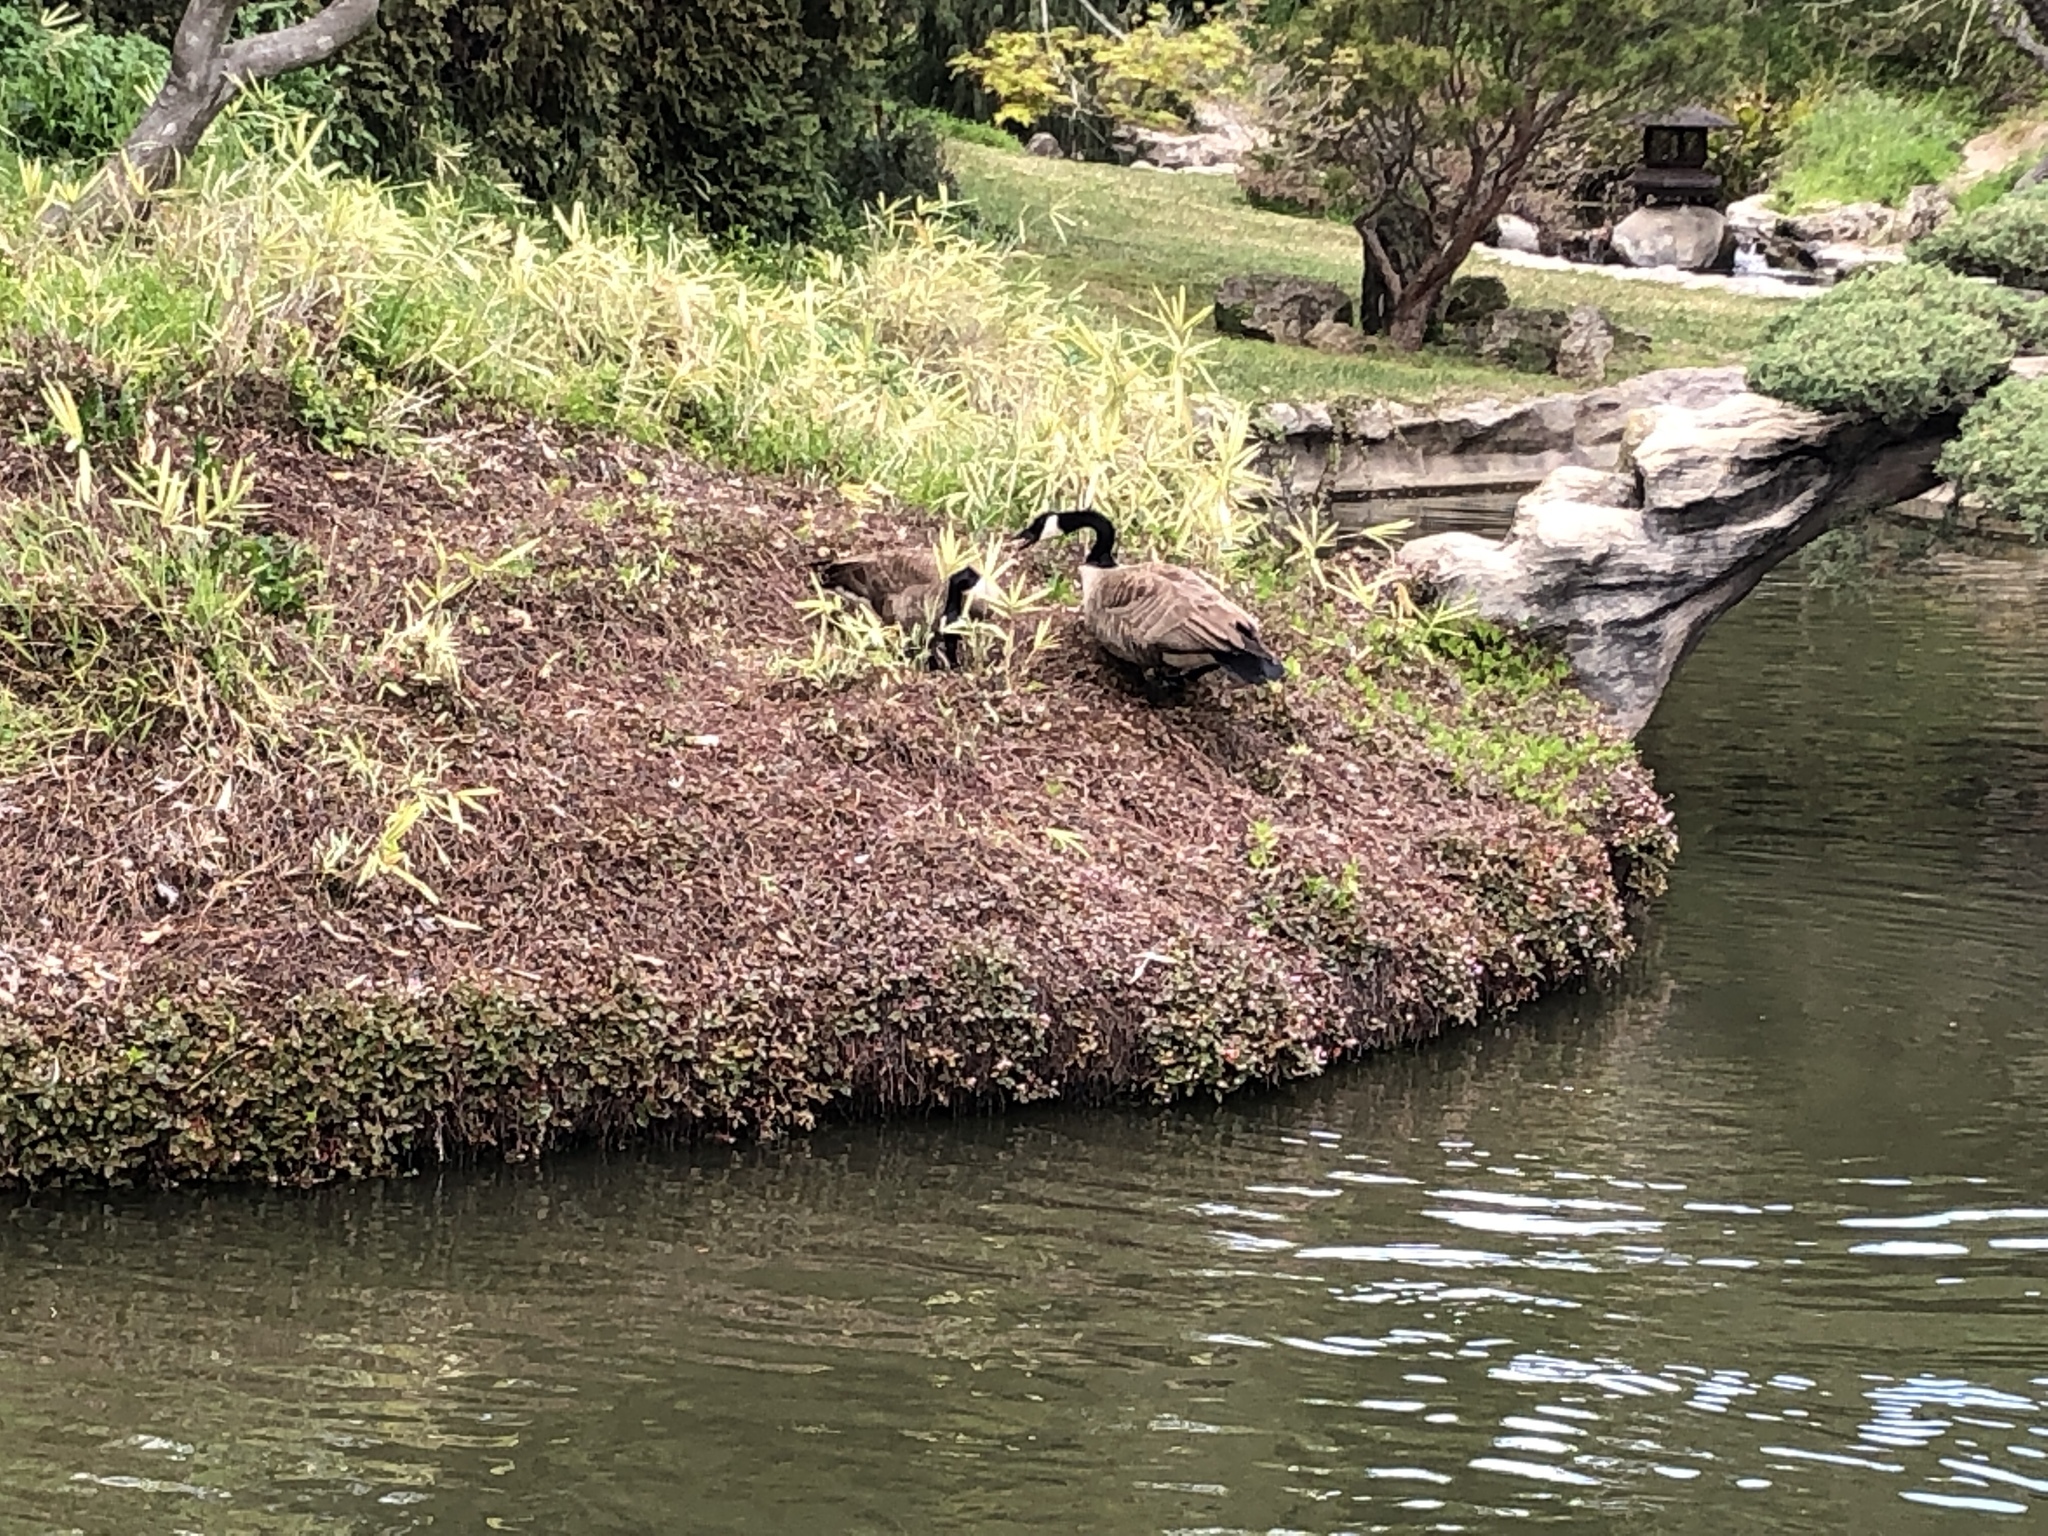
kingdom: Animalia
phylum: Chordata
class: Aves
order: Anseriformes
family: Anatidae
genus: Branta
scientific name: Branta canadensis
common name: Canada goose
